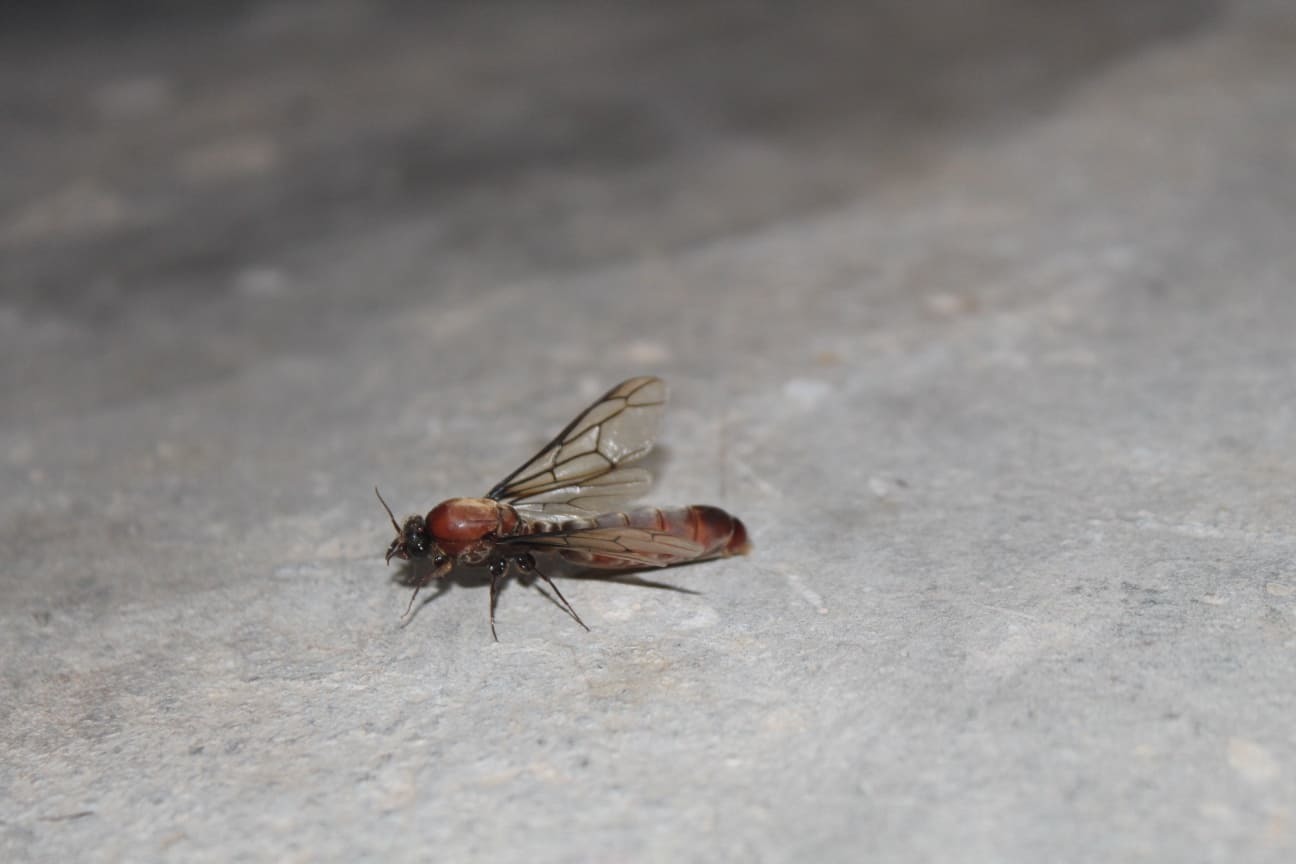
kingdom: Animalia
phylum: Arthropoda
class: Insecta
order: Hymenoptera
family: Formicidae
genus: Dorylus
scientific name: Dorylus fulvus
